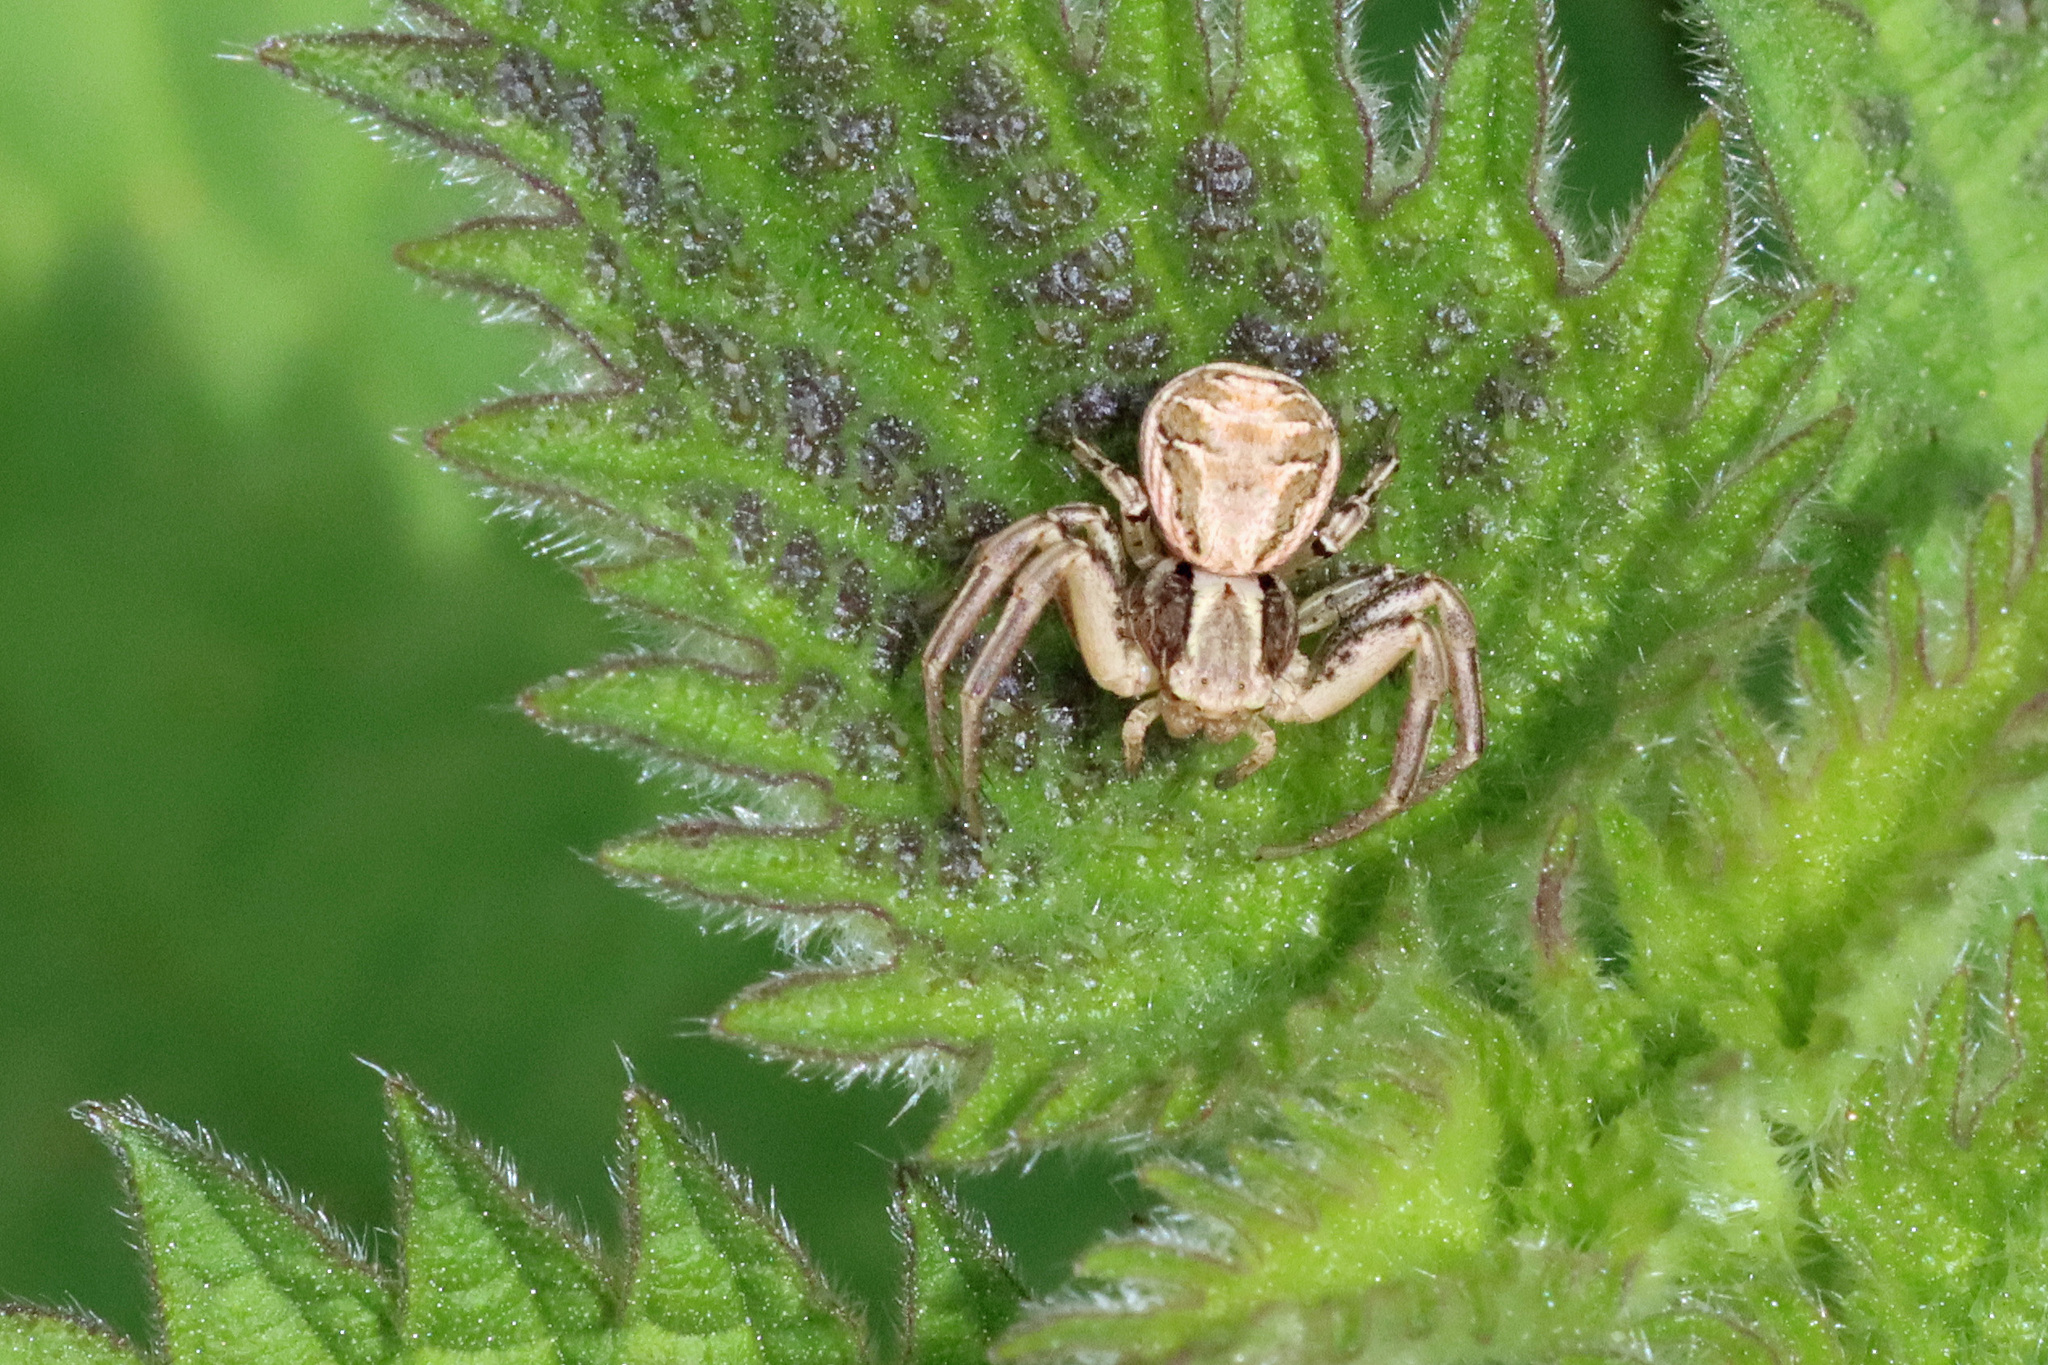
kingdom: Animalia
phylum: Arthropoda
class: Arachnida
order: Araneae
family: Thomisidae
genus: Xysticus
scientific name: Xysticus
